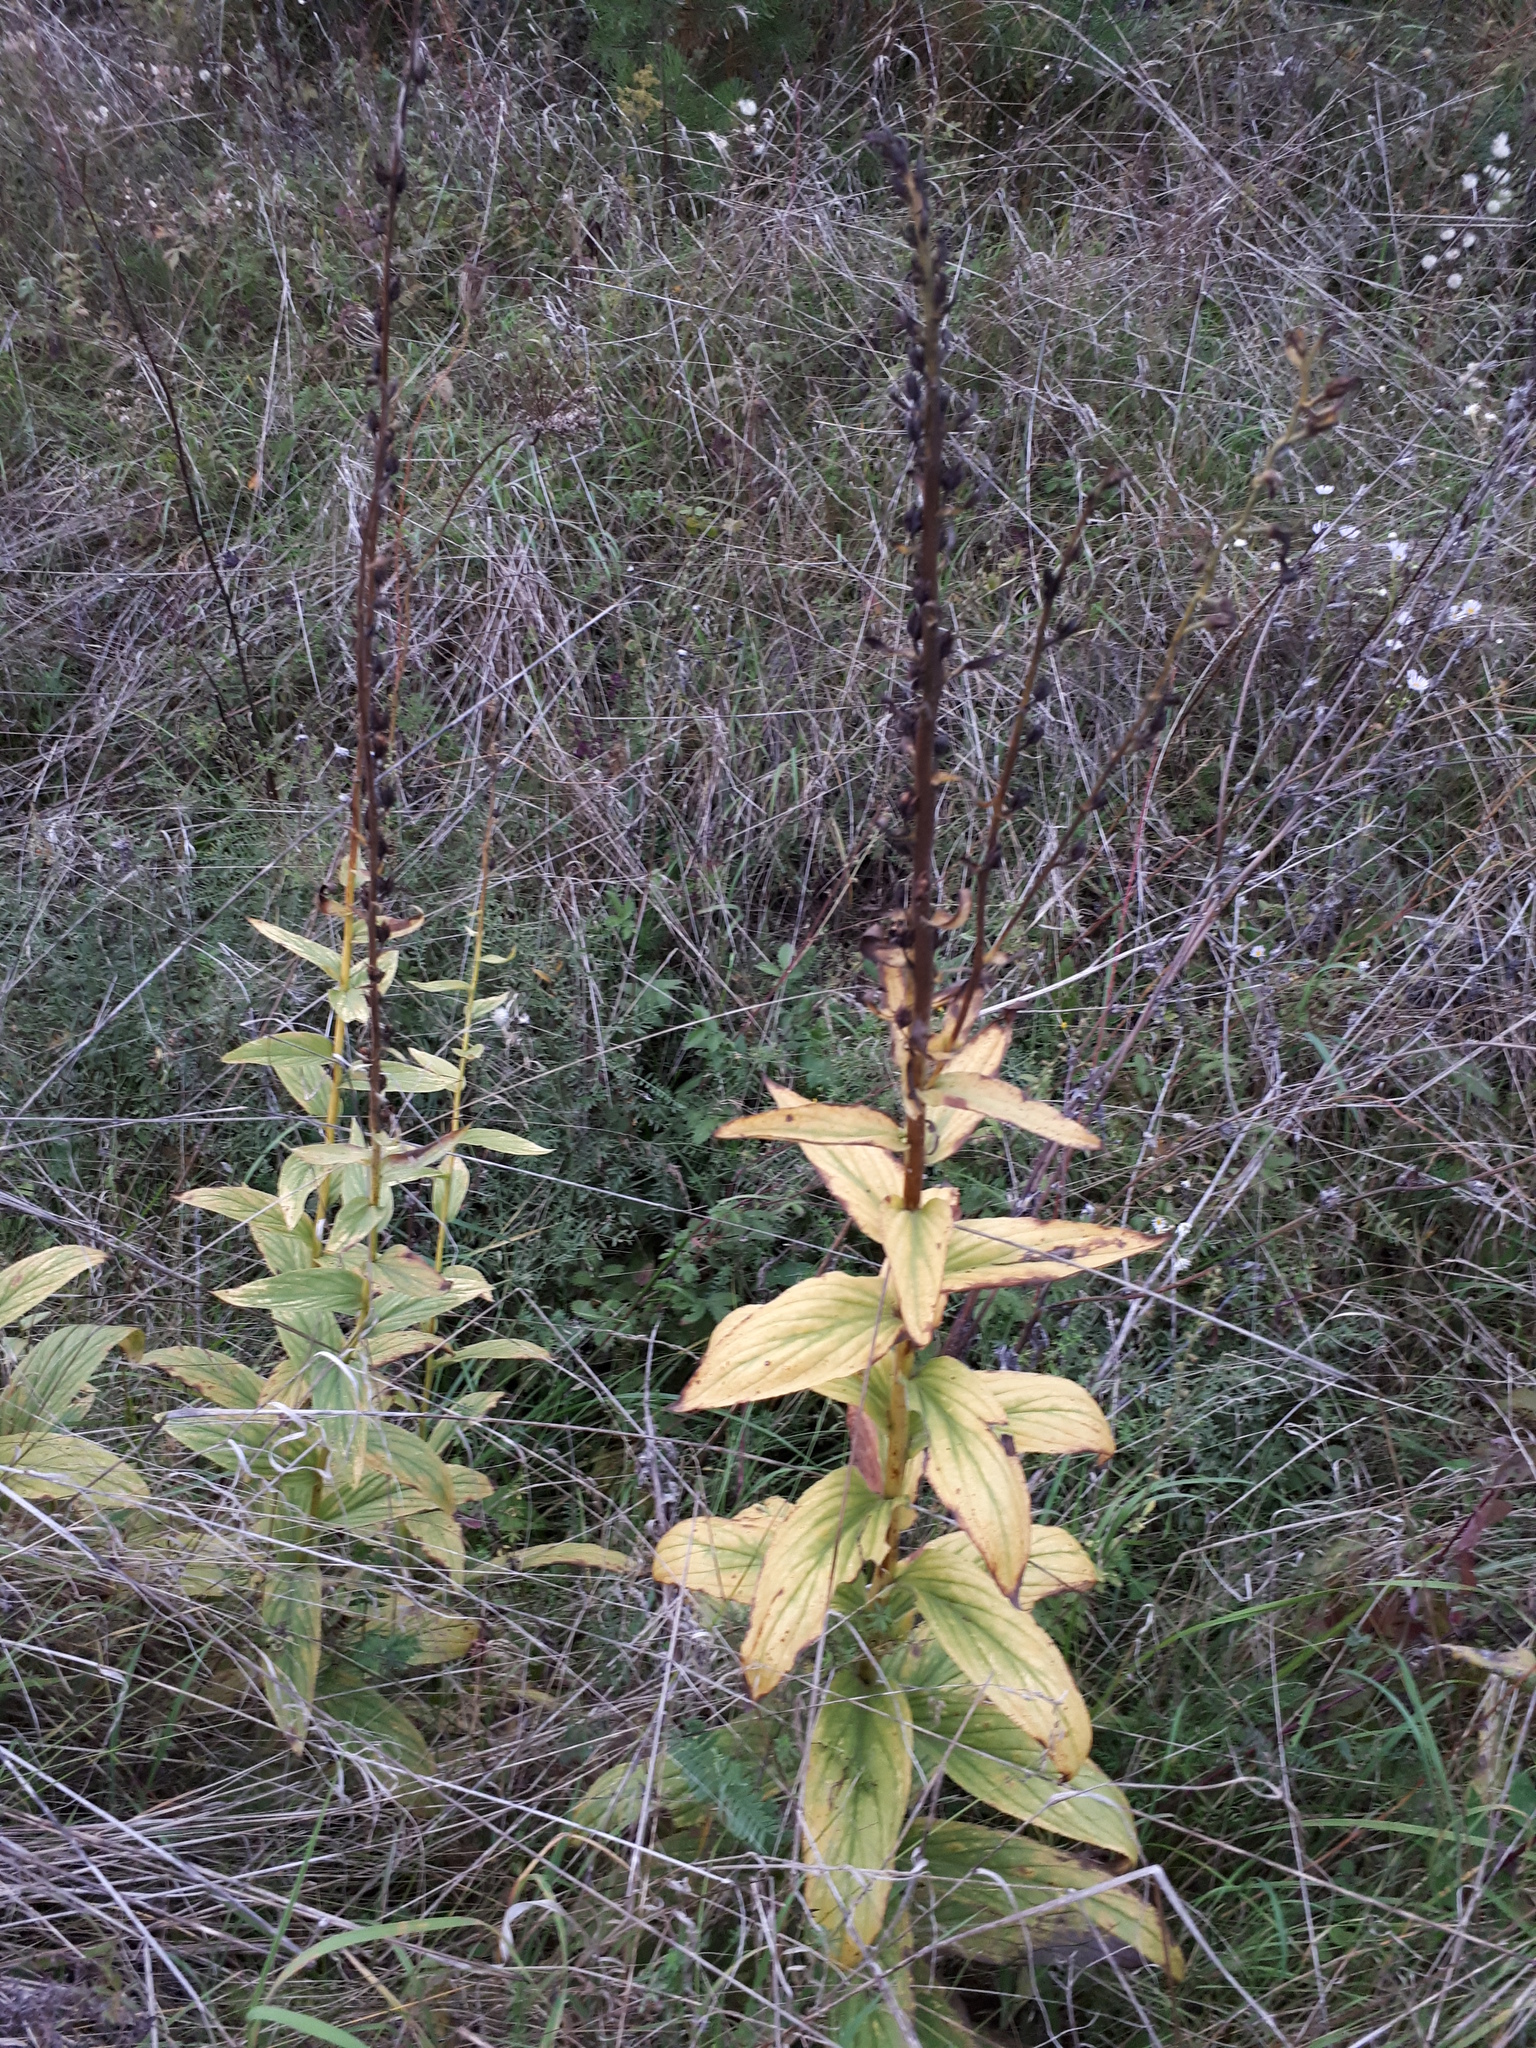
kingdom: Plantae
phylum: Tracheophyta
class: Magnoliopsida
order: Lamiales
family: Plantaginaceae
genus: Digitalis
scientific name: Digitalis grandiflora
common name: Yellow foxglove
